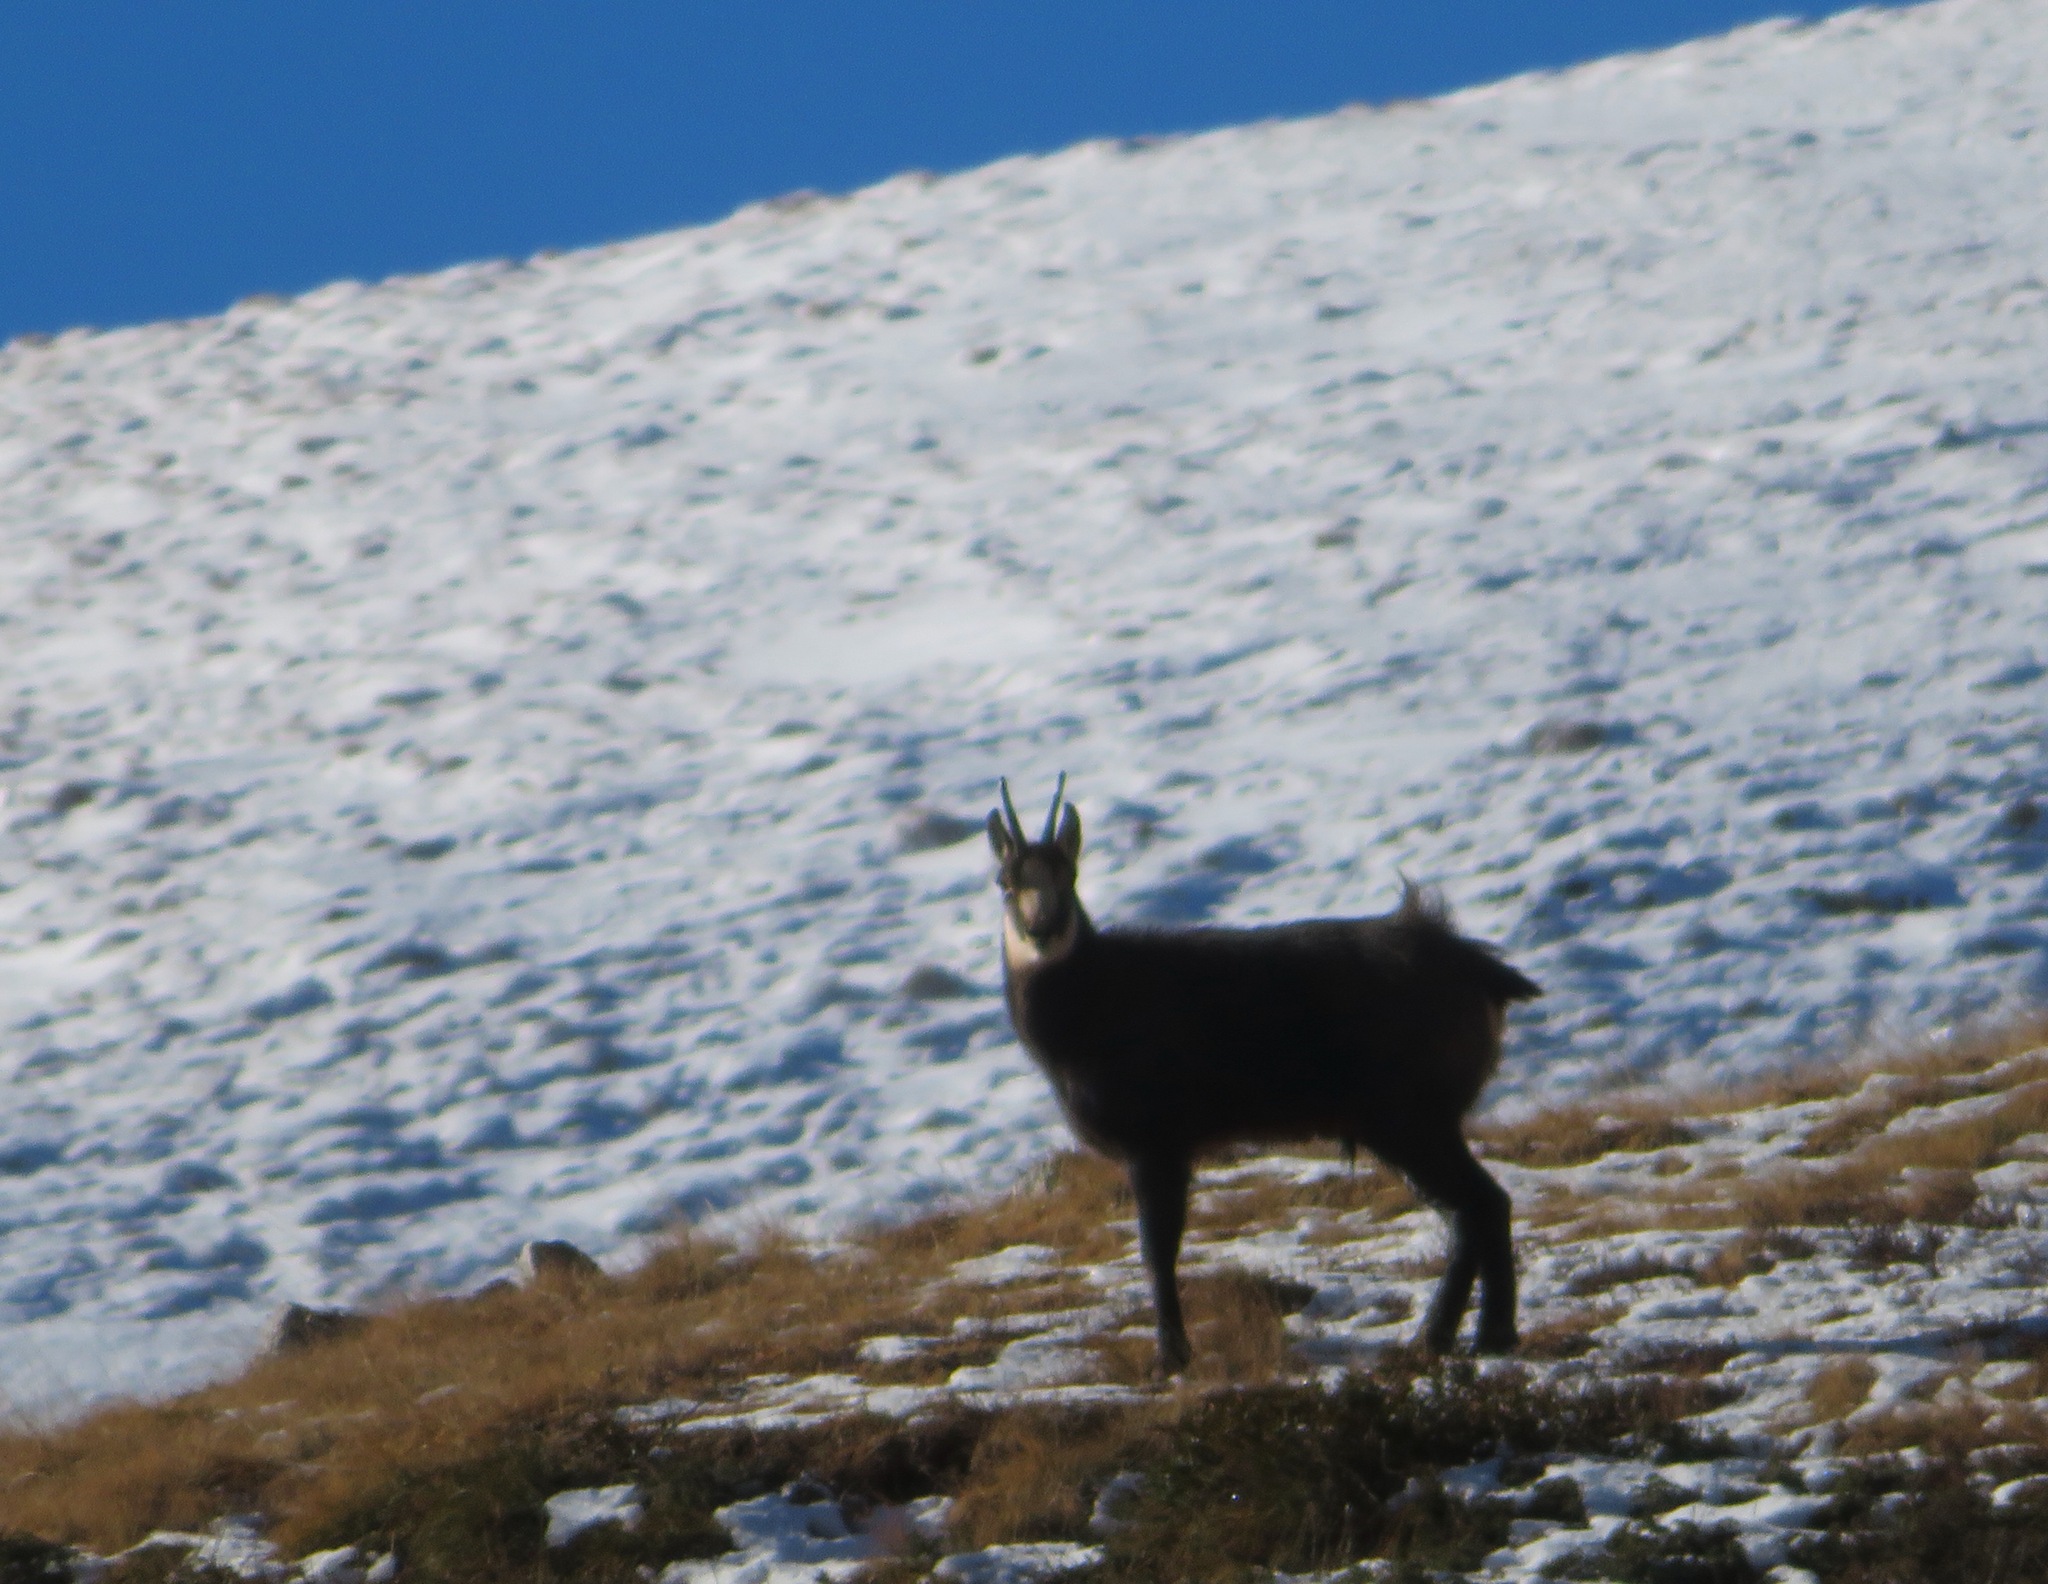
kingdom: Animalia
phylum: Chordata
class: Mammalia
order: Artiodactyla
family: Bovidae
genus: Rupicapra
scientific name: Rupicapra rupicapra
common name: Chamois
